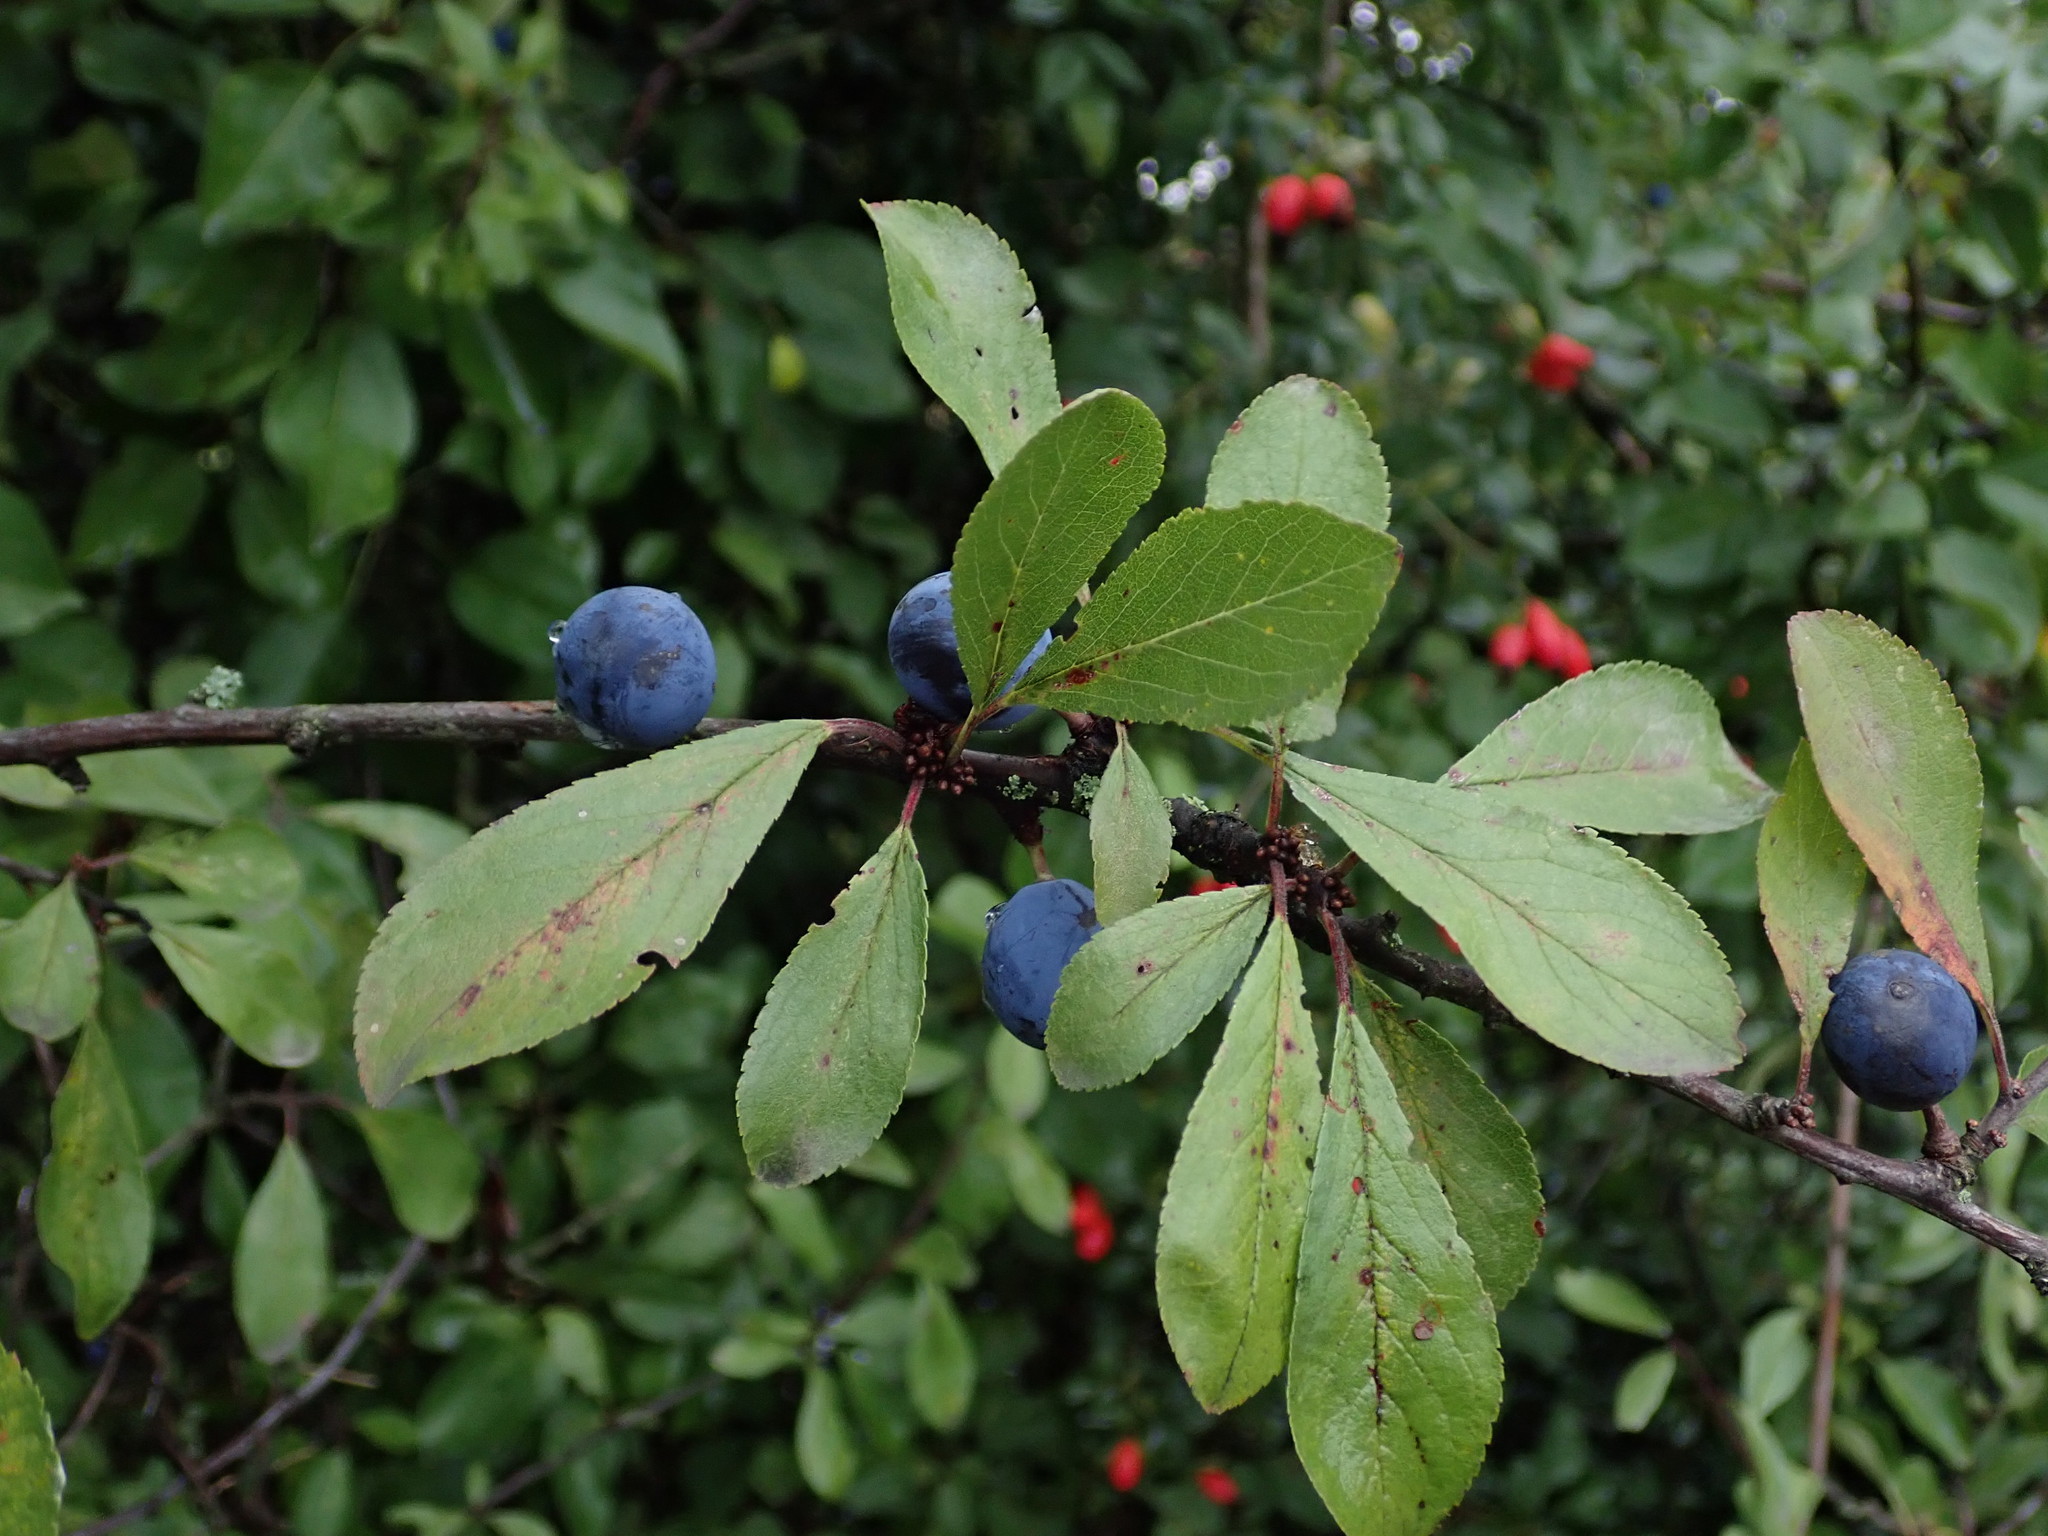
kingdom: Plantae
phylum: Tracheophyta
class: Magnoliopsida
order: Rosales
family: Rosaceae
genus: Prunus
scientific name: Prunus spinosa
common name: Blackthorn
